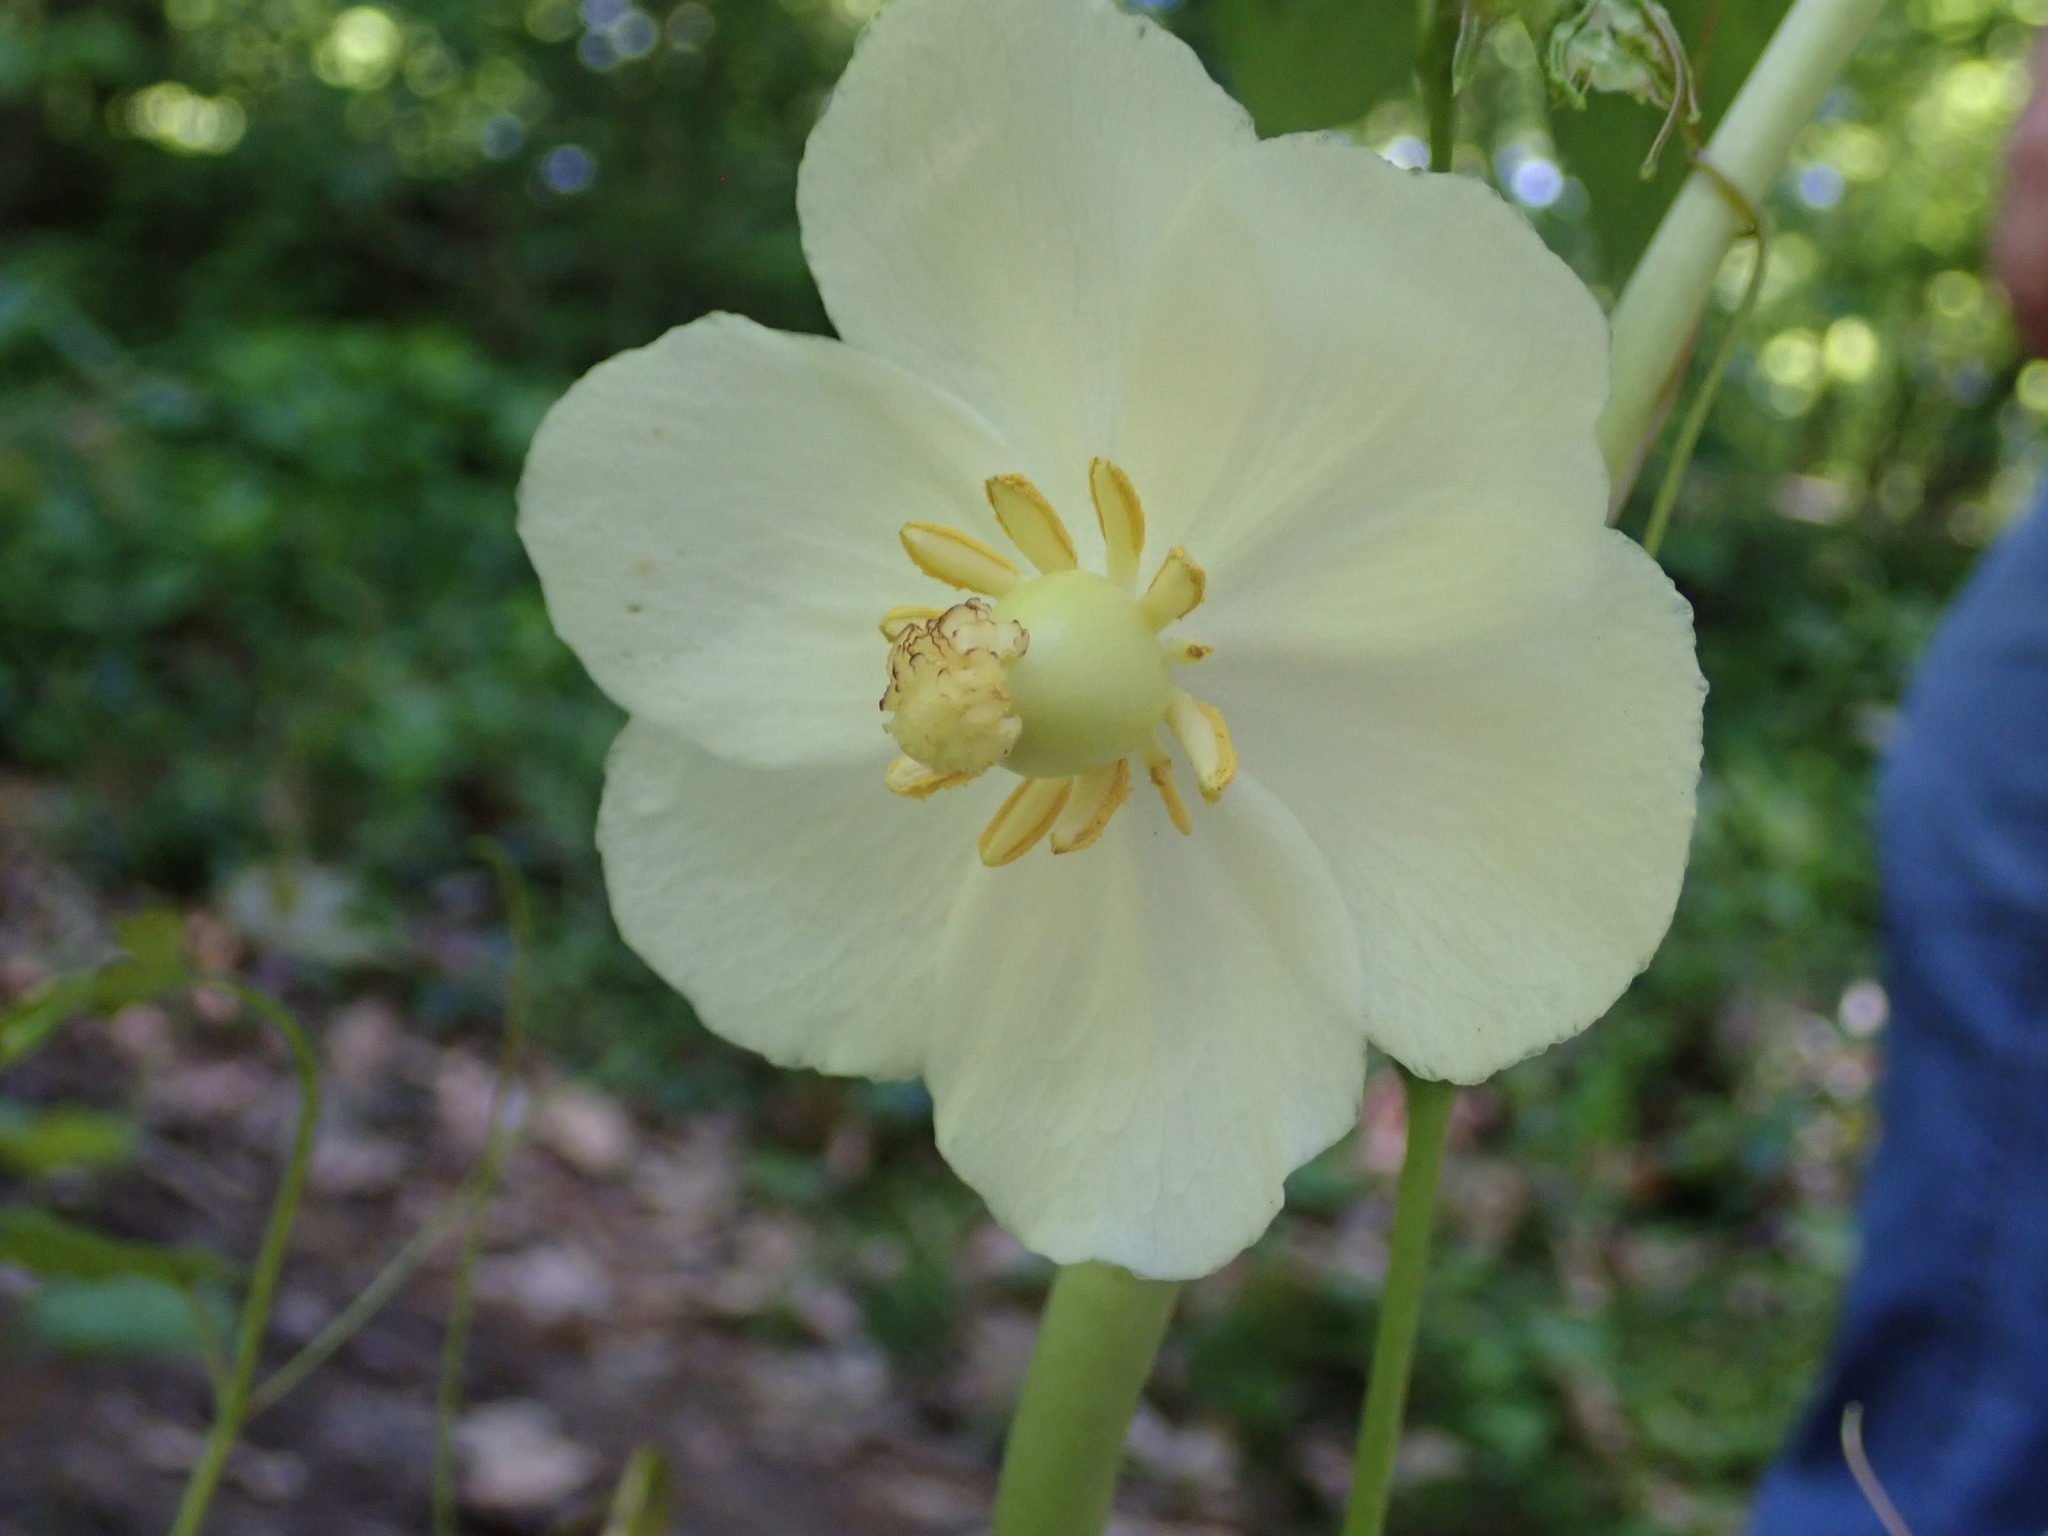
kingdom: Plantae
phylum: Tracheophyta
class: Magnoliopsida
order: Ranunculales
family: Berberidaceae
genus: Podophyllum
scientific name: Podophyllum peltatum
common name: Wild mandrake
